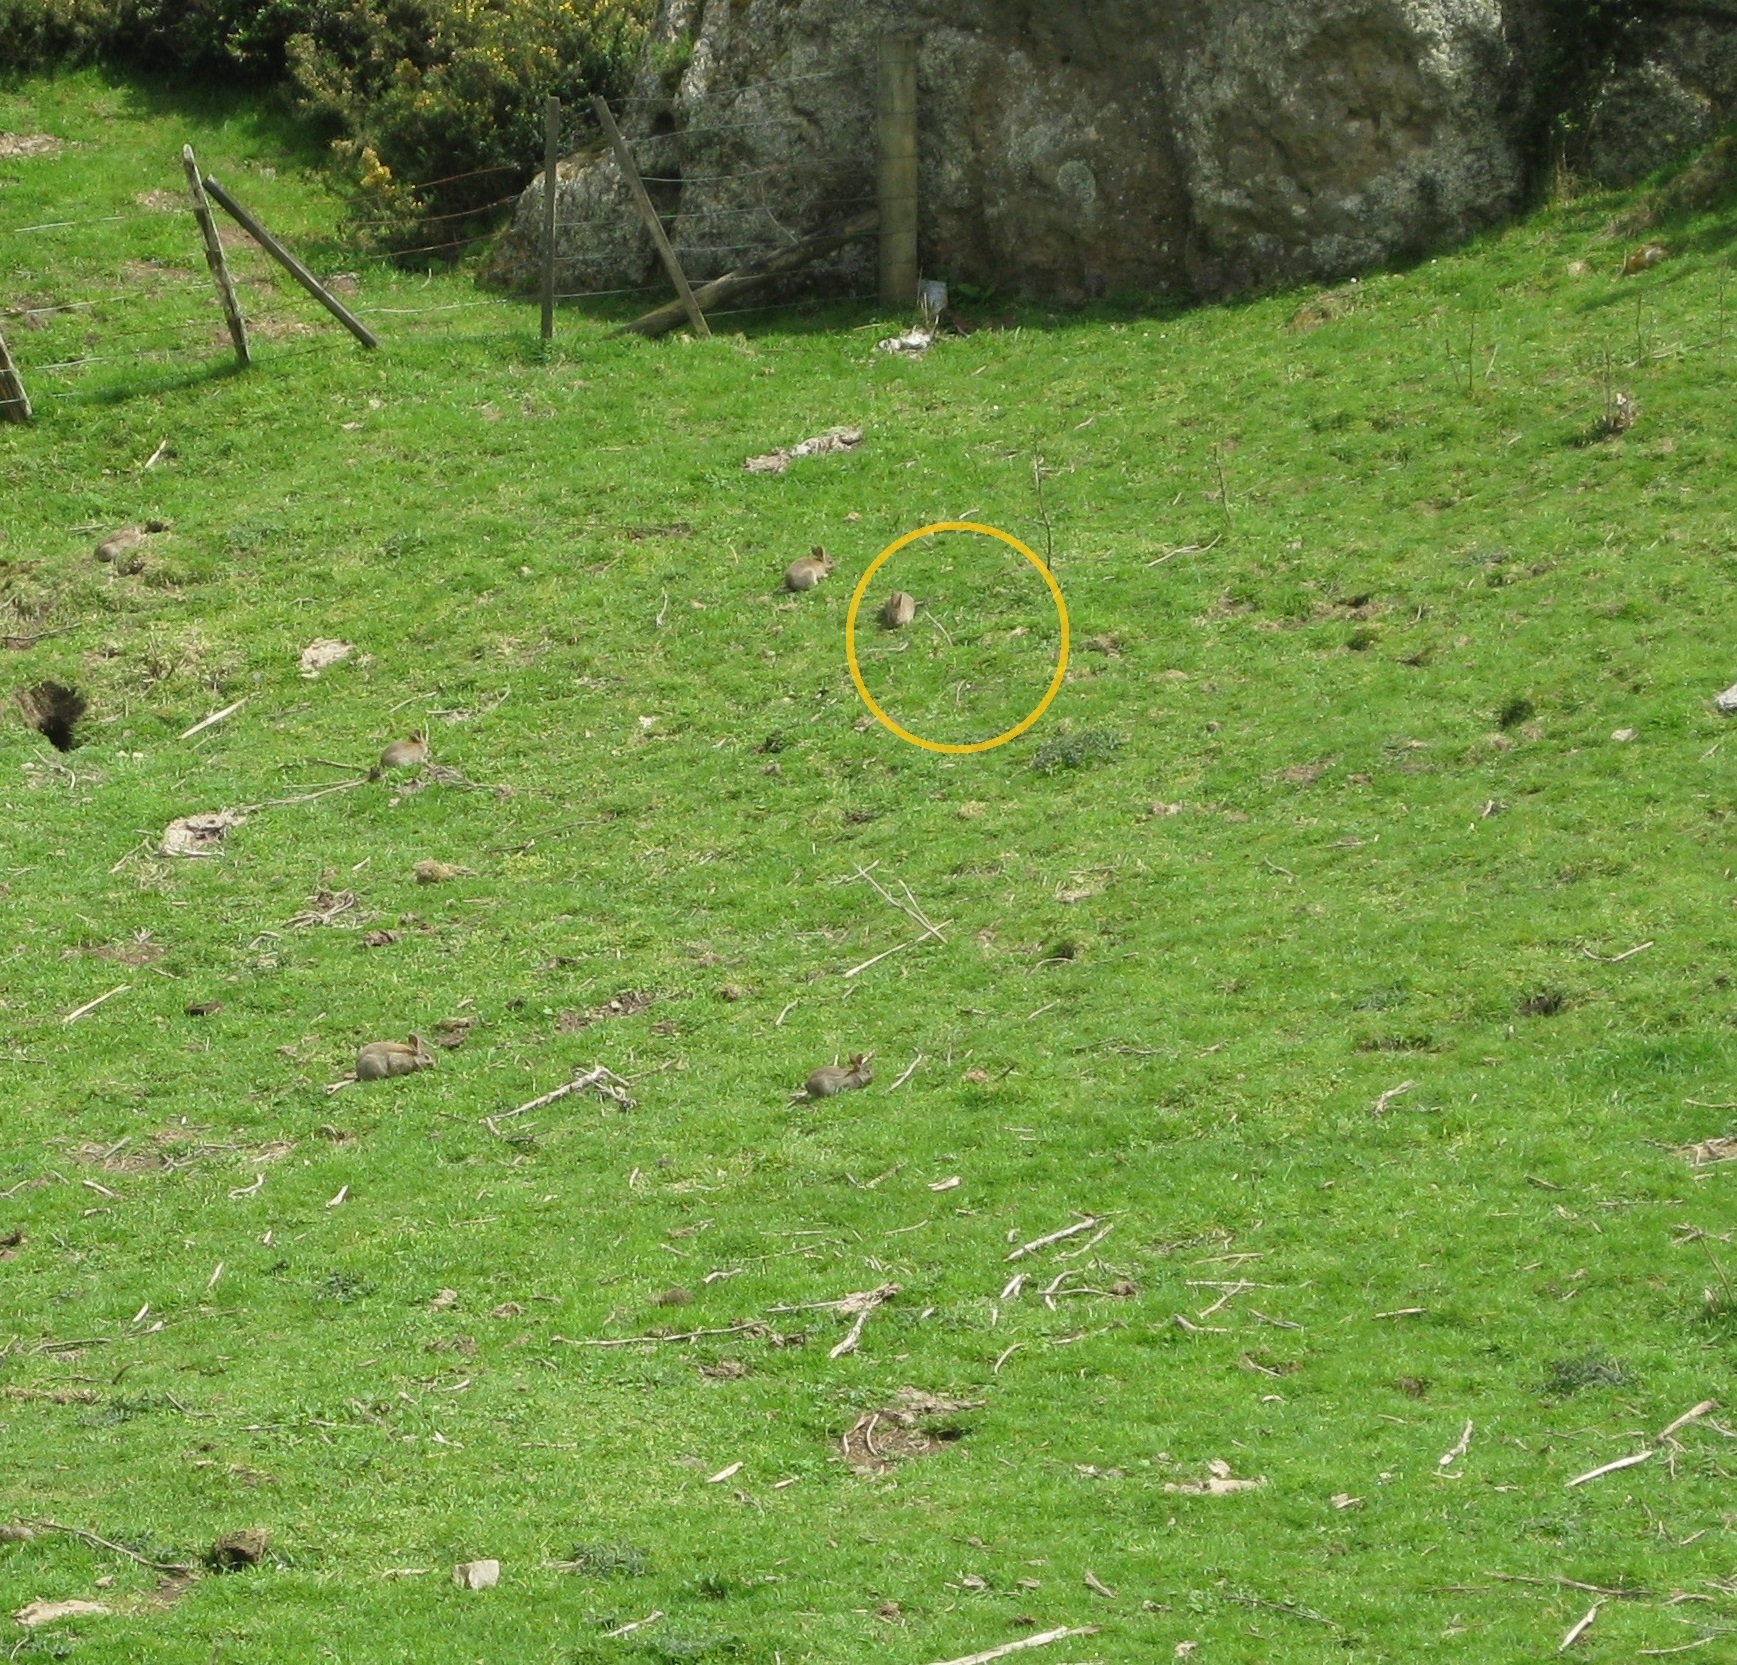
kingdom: Animalia
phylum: Chordata
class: Mammalia
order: Lagomorpha
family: Leporidae
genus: Oryctolagus
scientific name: Oryctolagus cuniculus
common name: European rabbit
